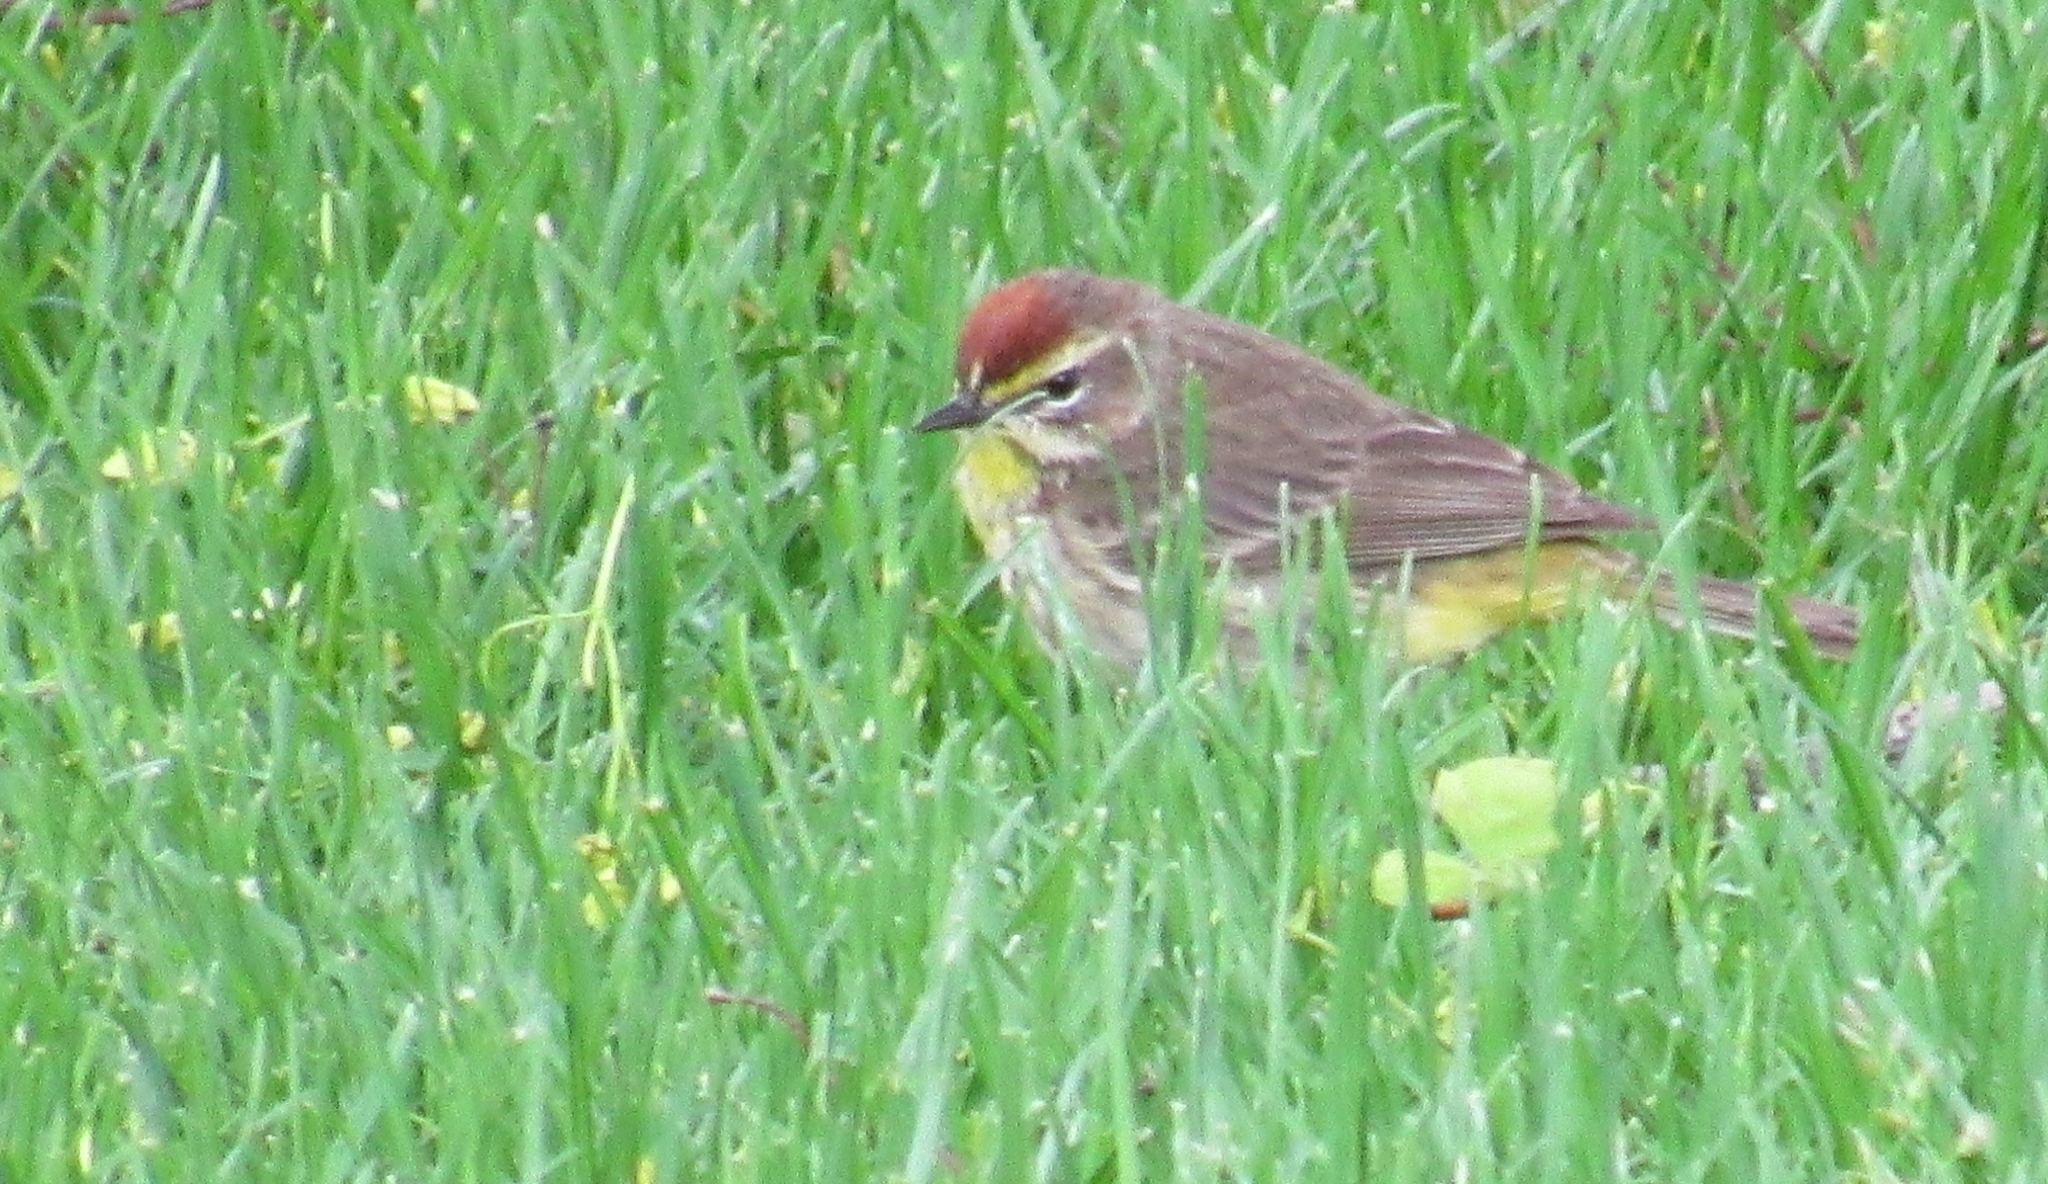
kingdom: Animalia
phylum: Chordata
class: Aves
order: Passeriformes
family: Parulidae
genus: Setophaga
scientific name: Setophaga palmarum
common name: Palm warbler
